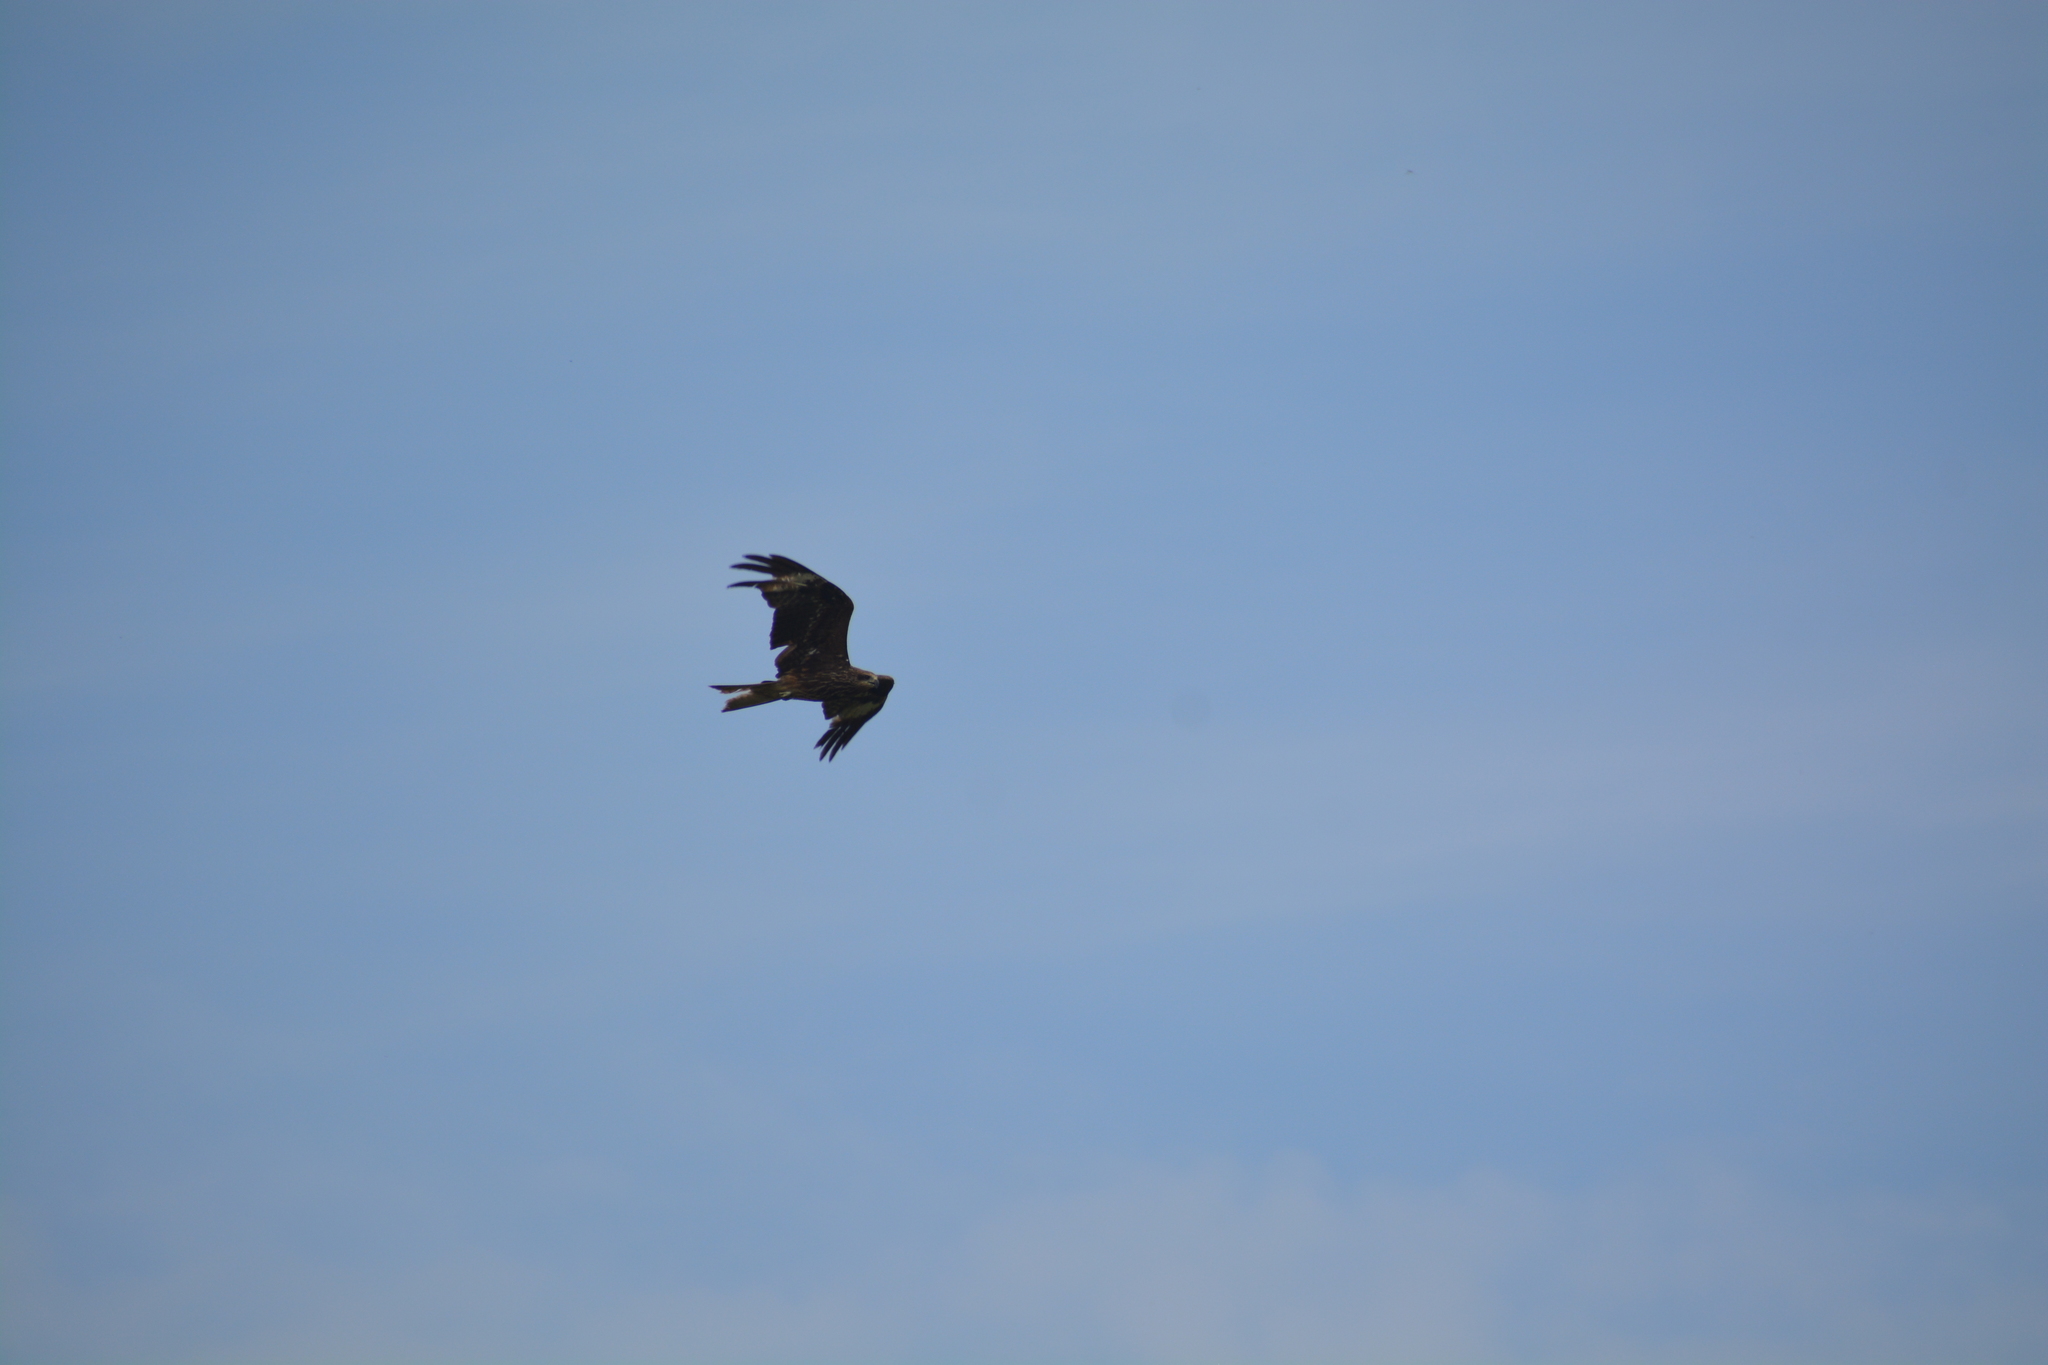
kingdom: Animalia
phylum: Chordata
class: Aves
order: Accipitriformes
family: Accipitridae
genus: Milvus
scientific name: Milvus migrans
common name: Black kite
